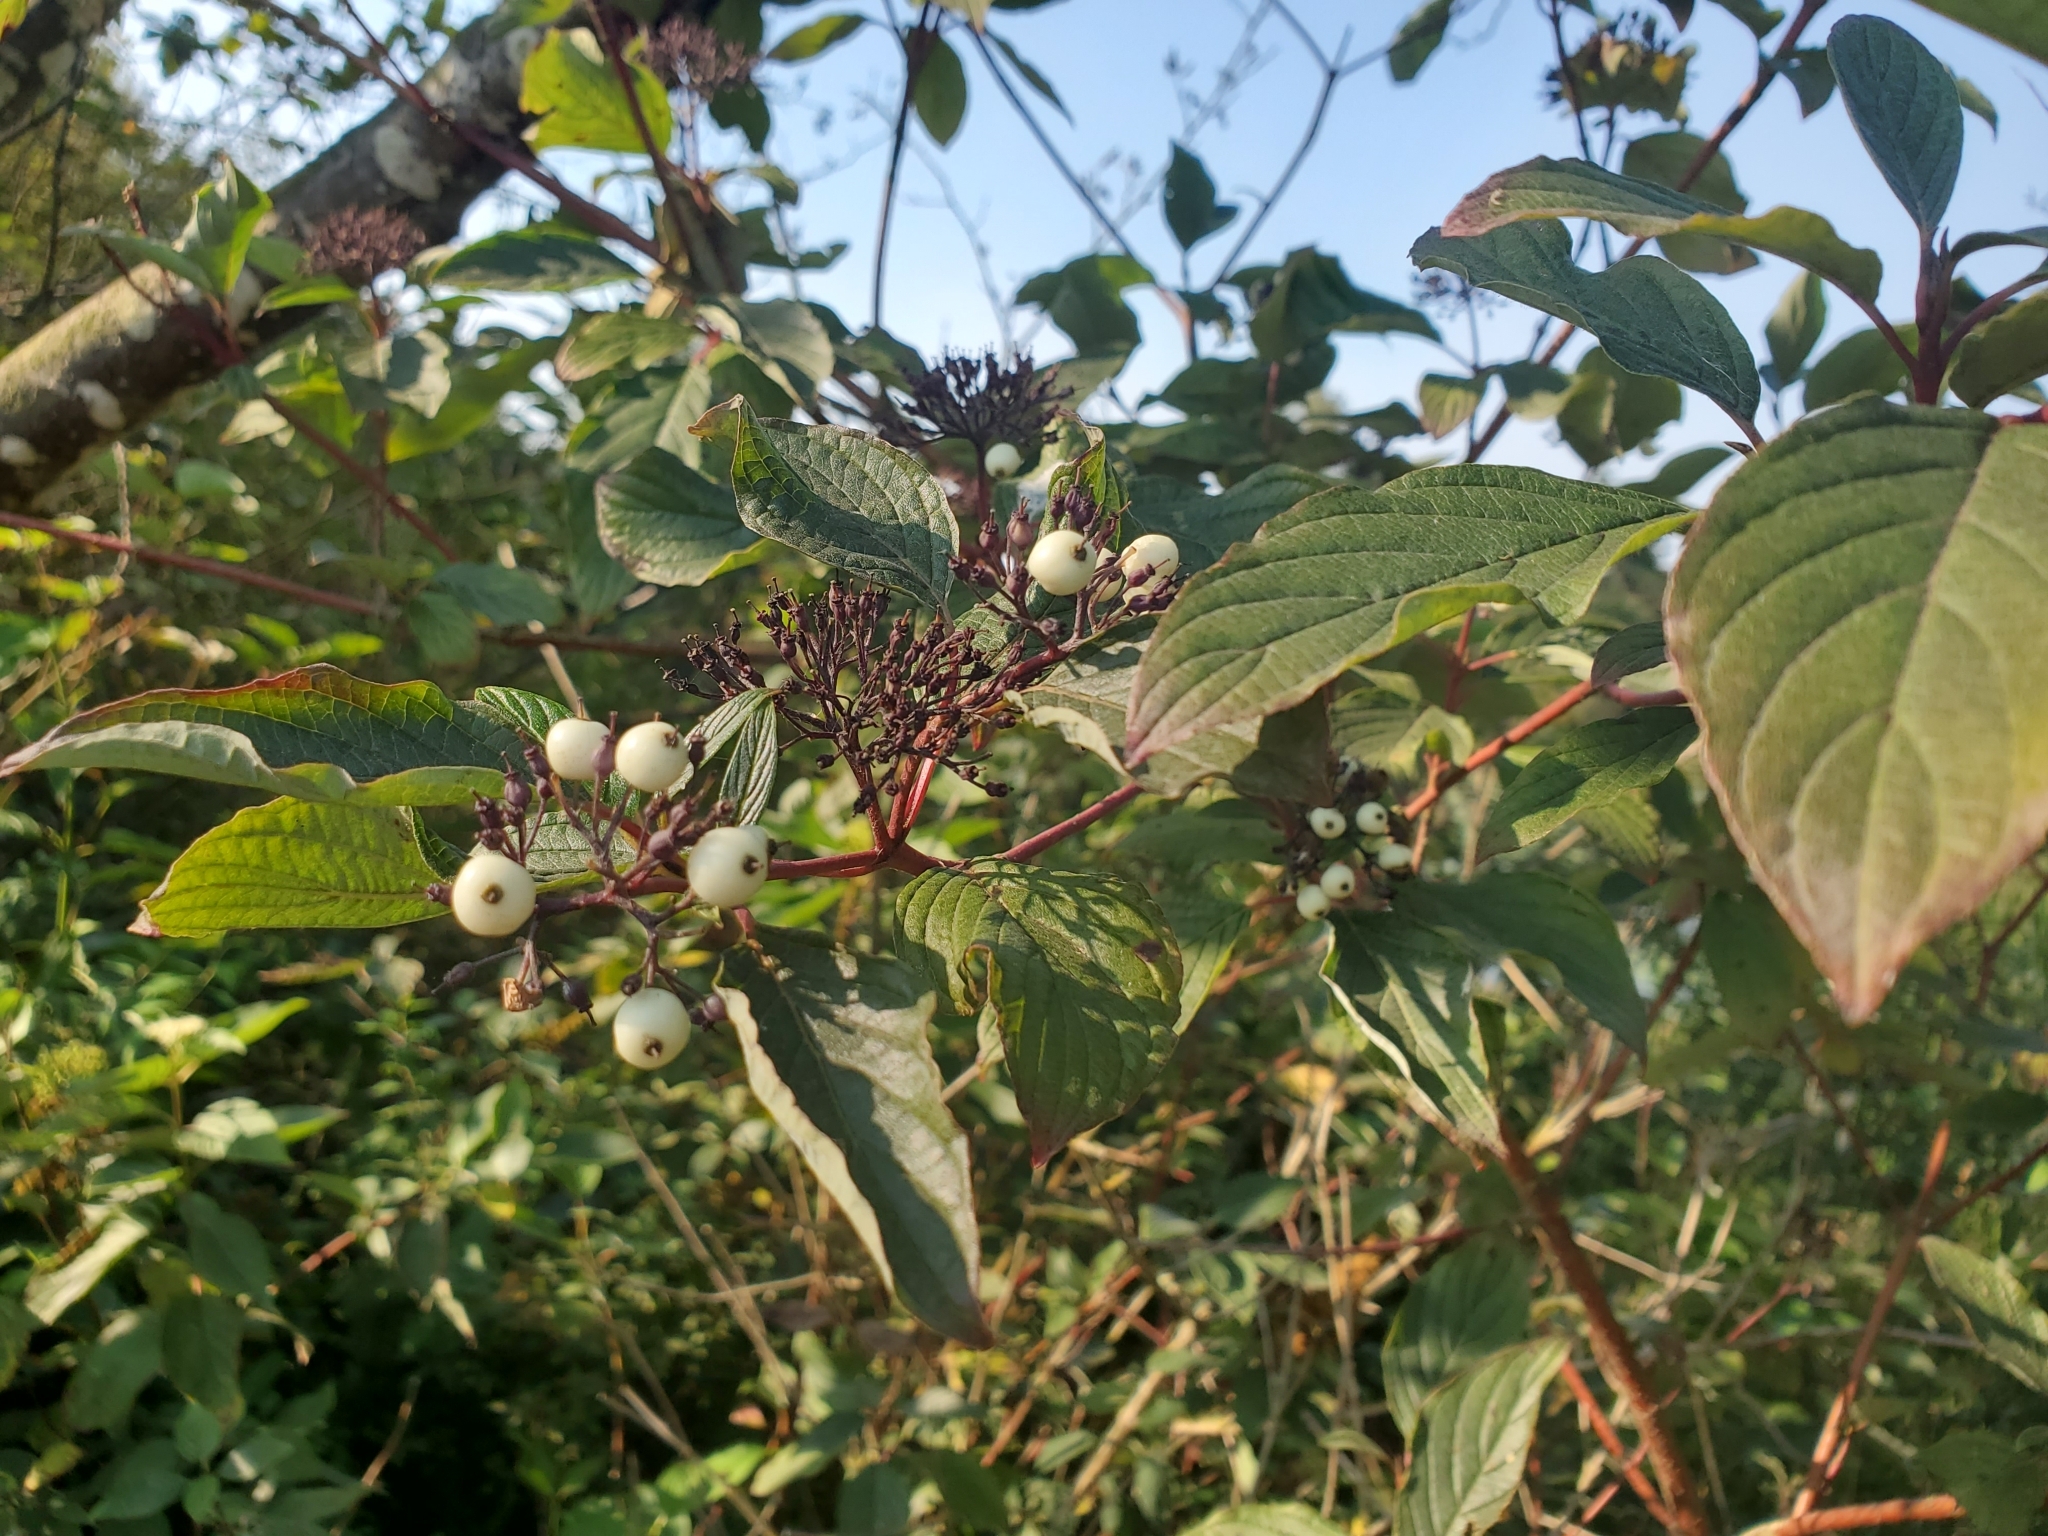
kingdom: Plantae
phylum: Tracheophyta
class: Magnoliopsida
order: Cornales
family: Cornaceae
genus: Cornus
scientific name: Cornus sericea
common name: Red-osier dogwood
